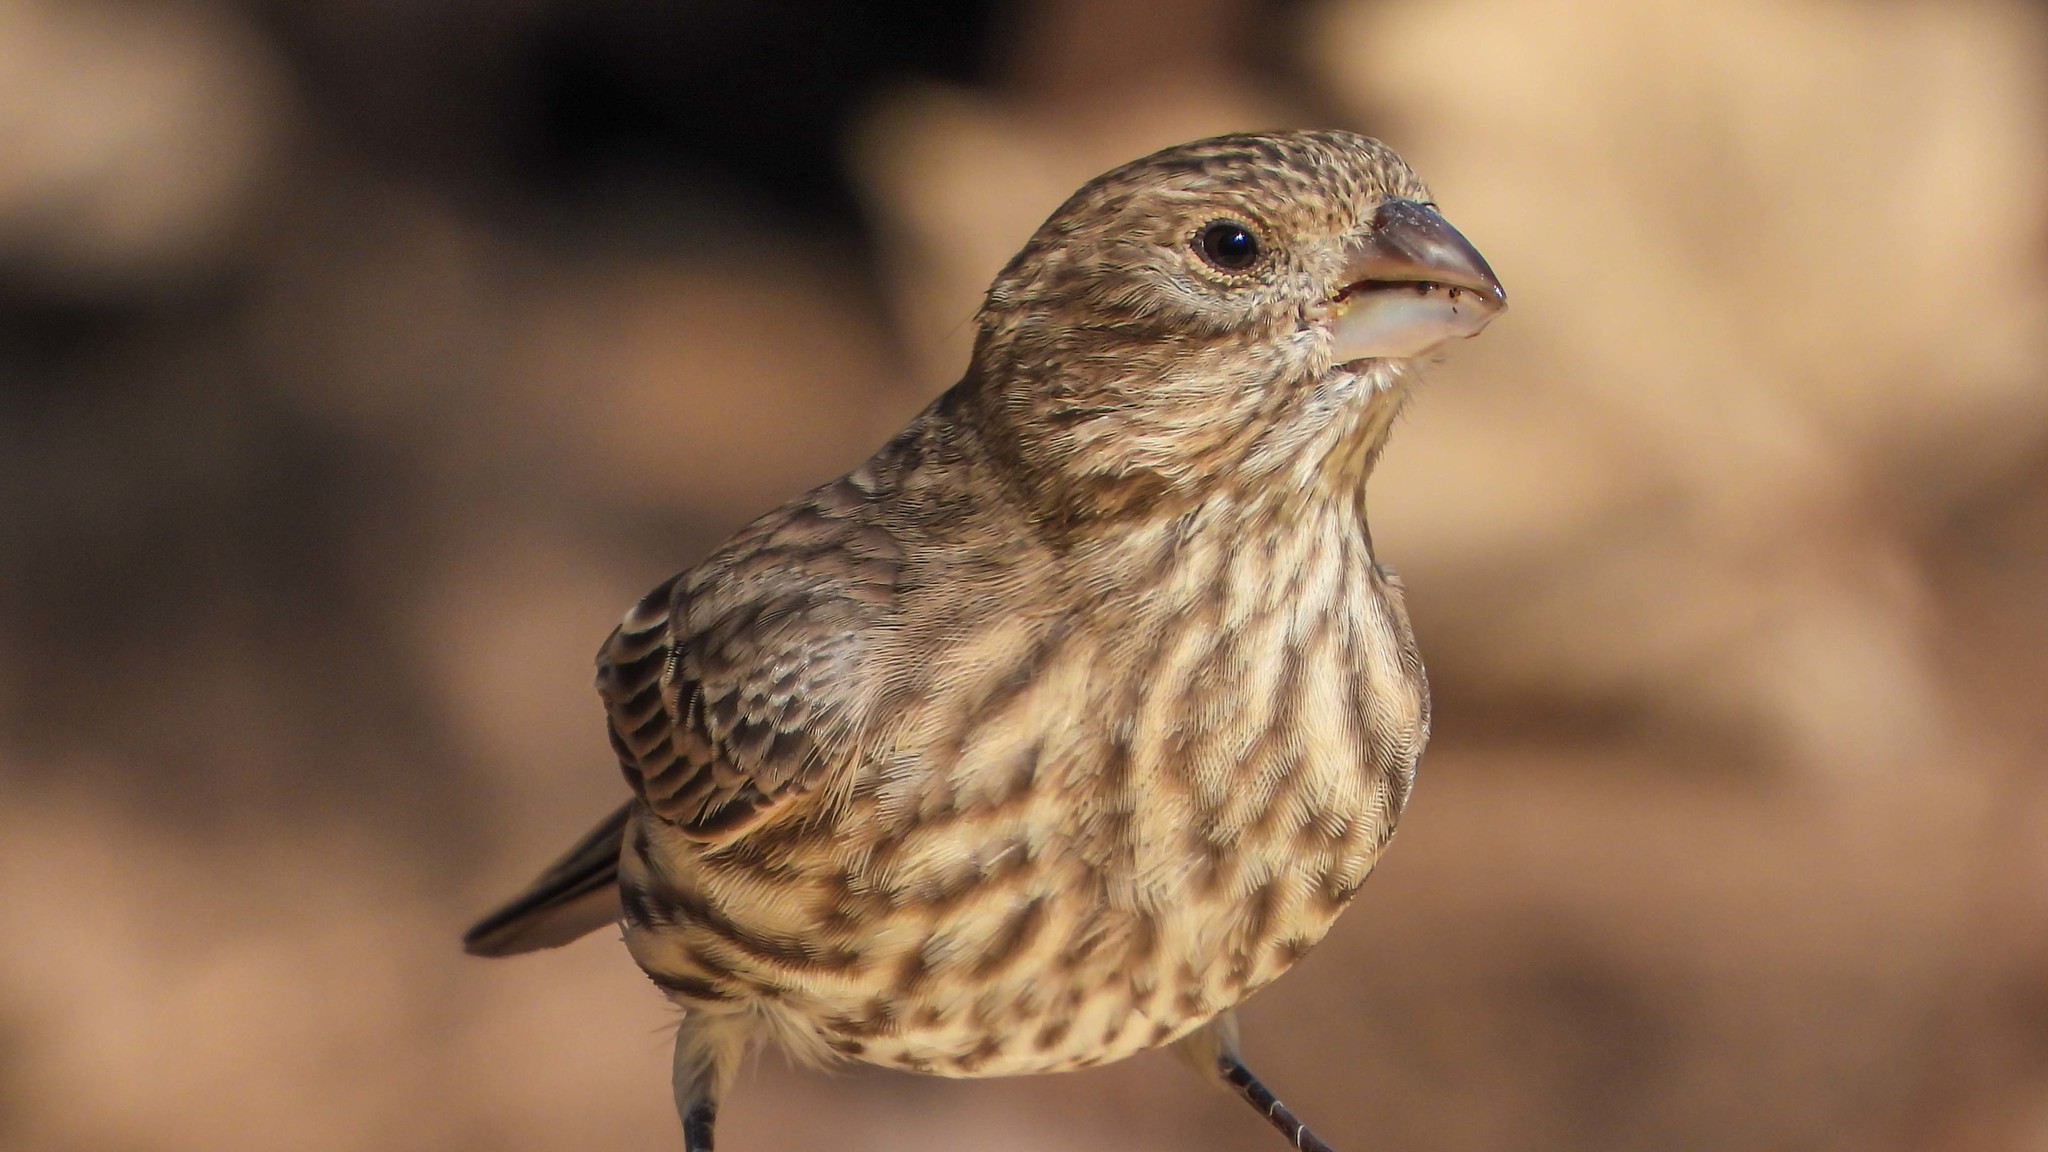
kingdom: Animalia
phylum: Chordata
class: Aves
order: Passeriformes
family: Fringillidae
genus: Haemorhous
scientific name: Haemorhous mexicanus
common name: House finch
